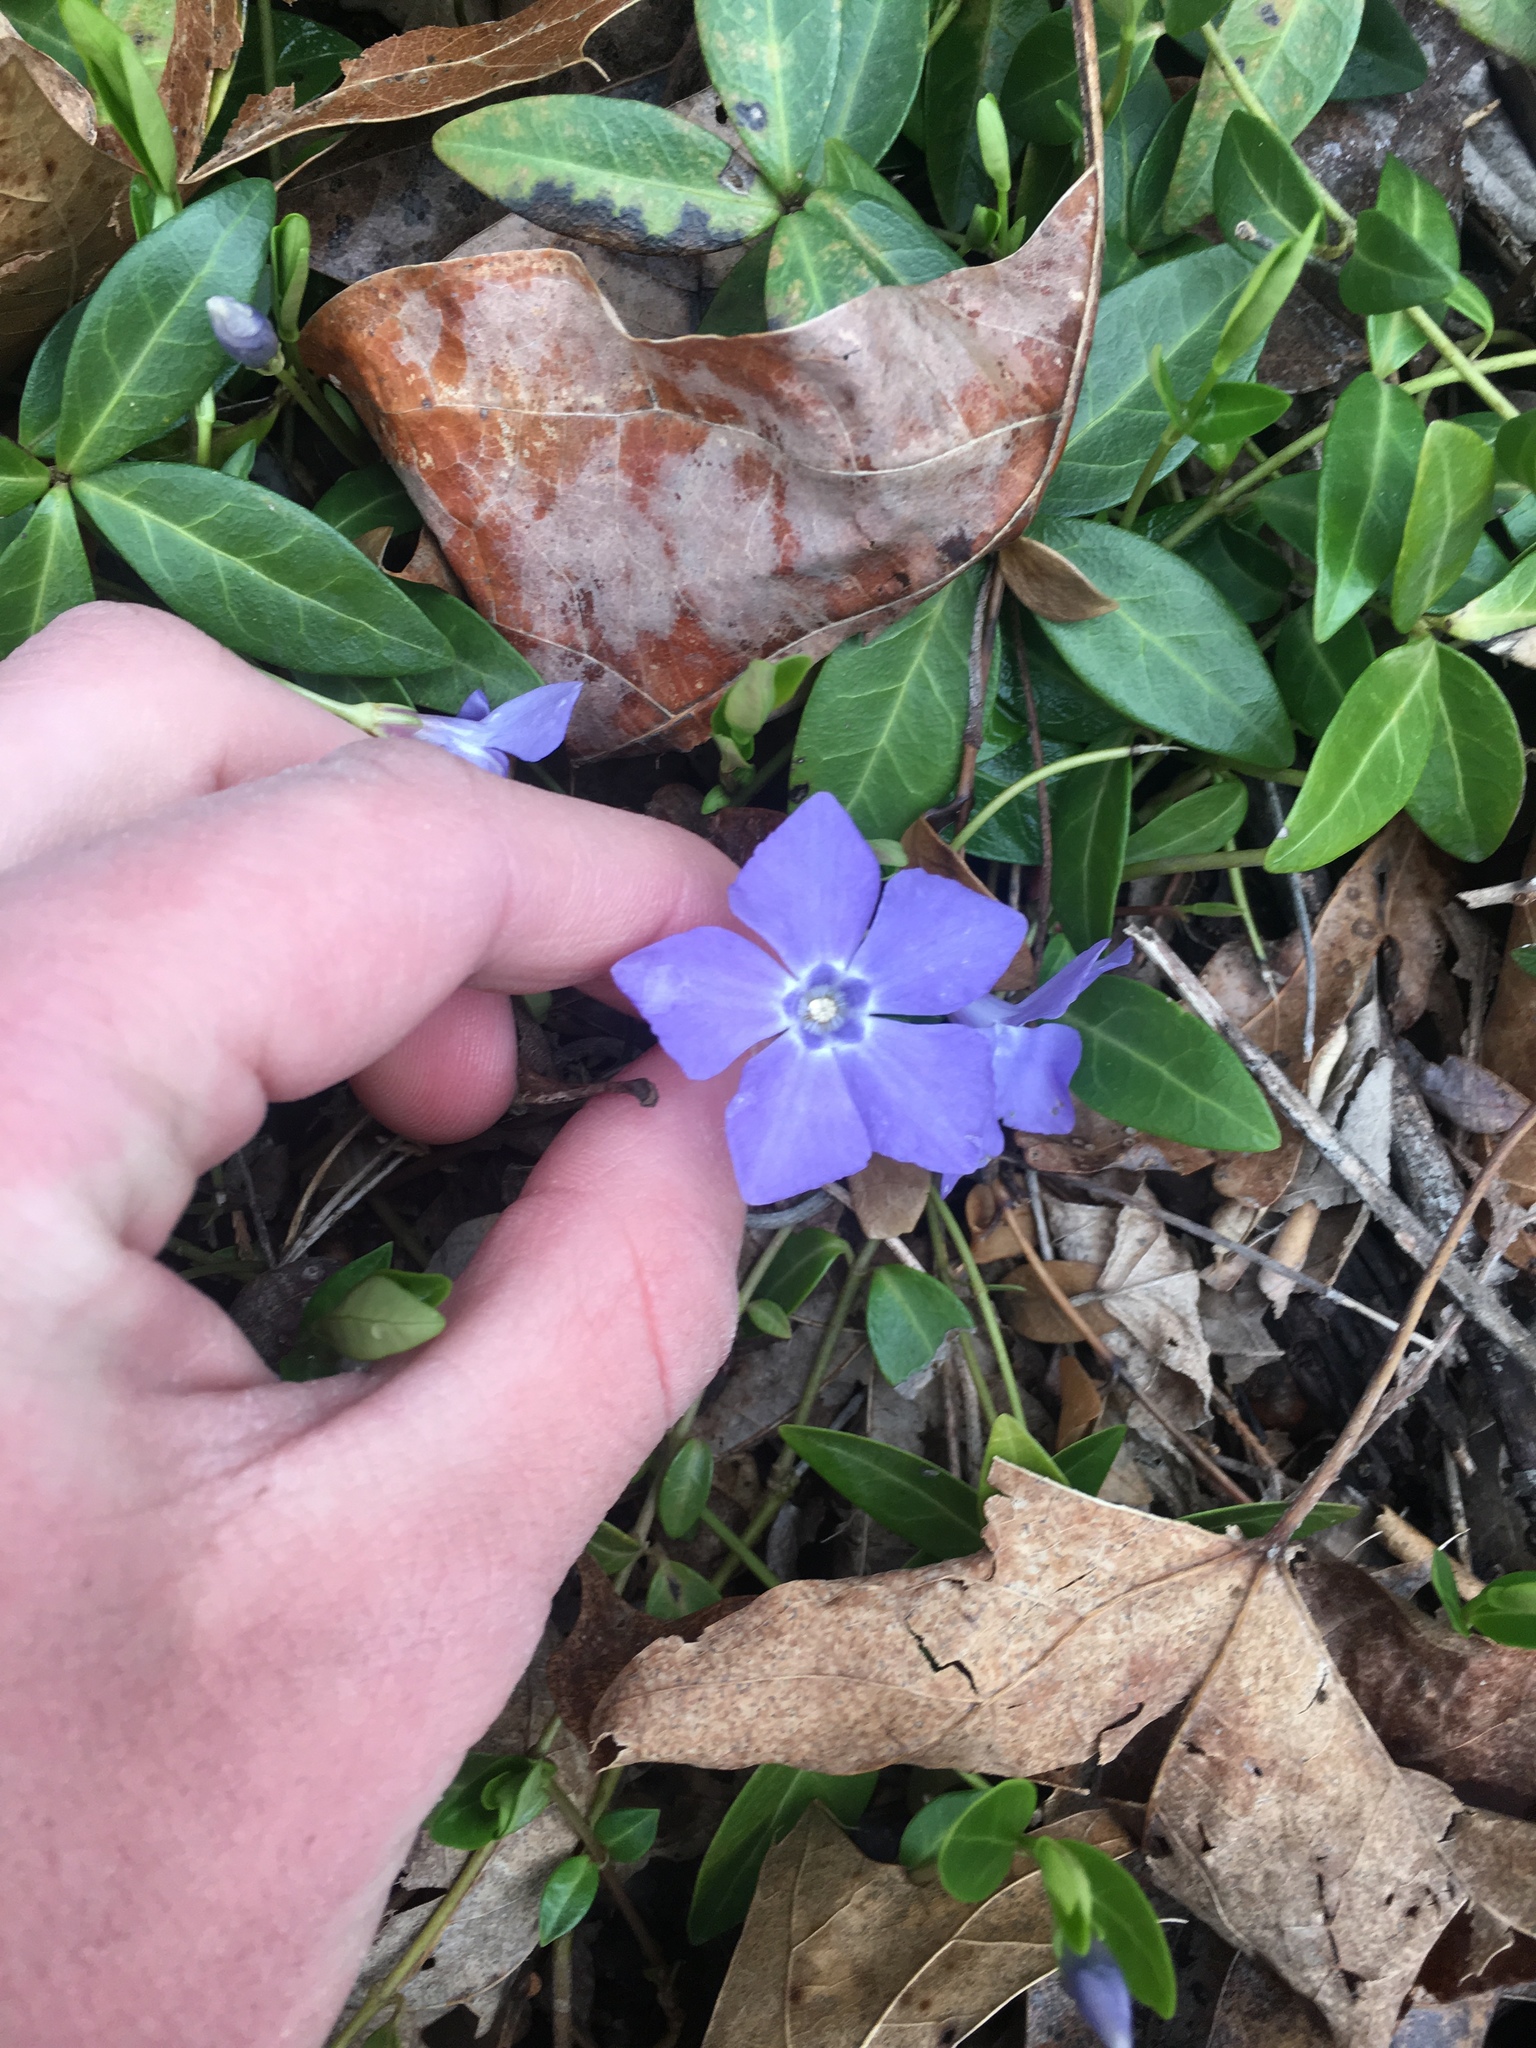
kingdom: Plantae
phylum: Tracheophyta
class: Magnoliopsida
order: Gentianales
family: Apocynaceae
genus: Vinca
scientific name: Vinca minor
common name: Lesser periwinkle
